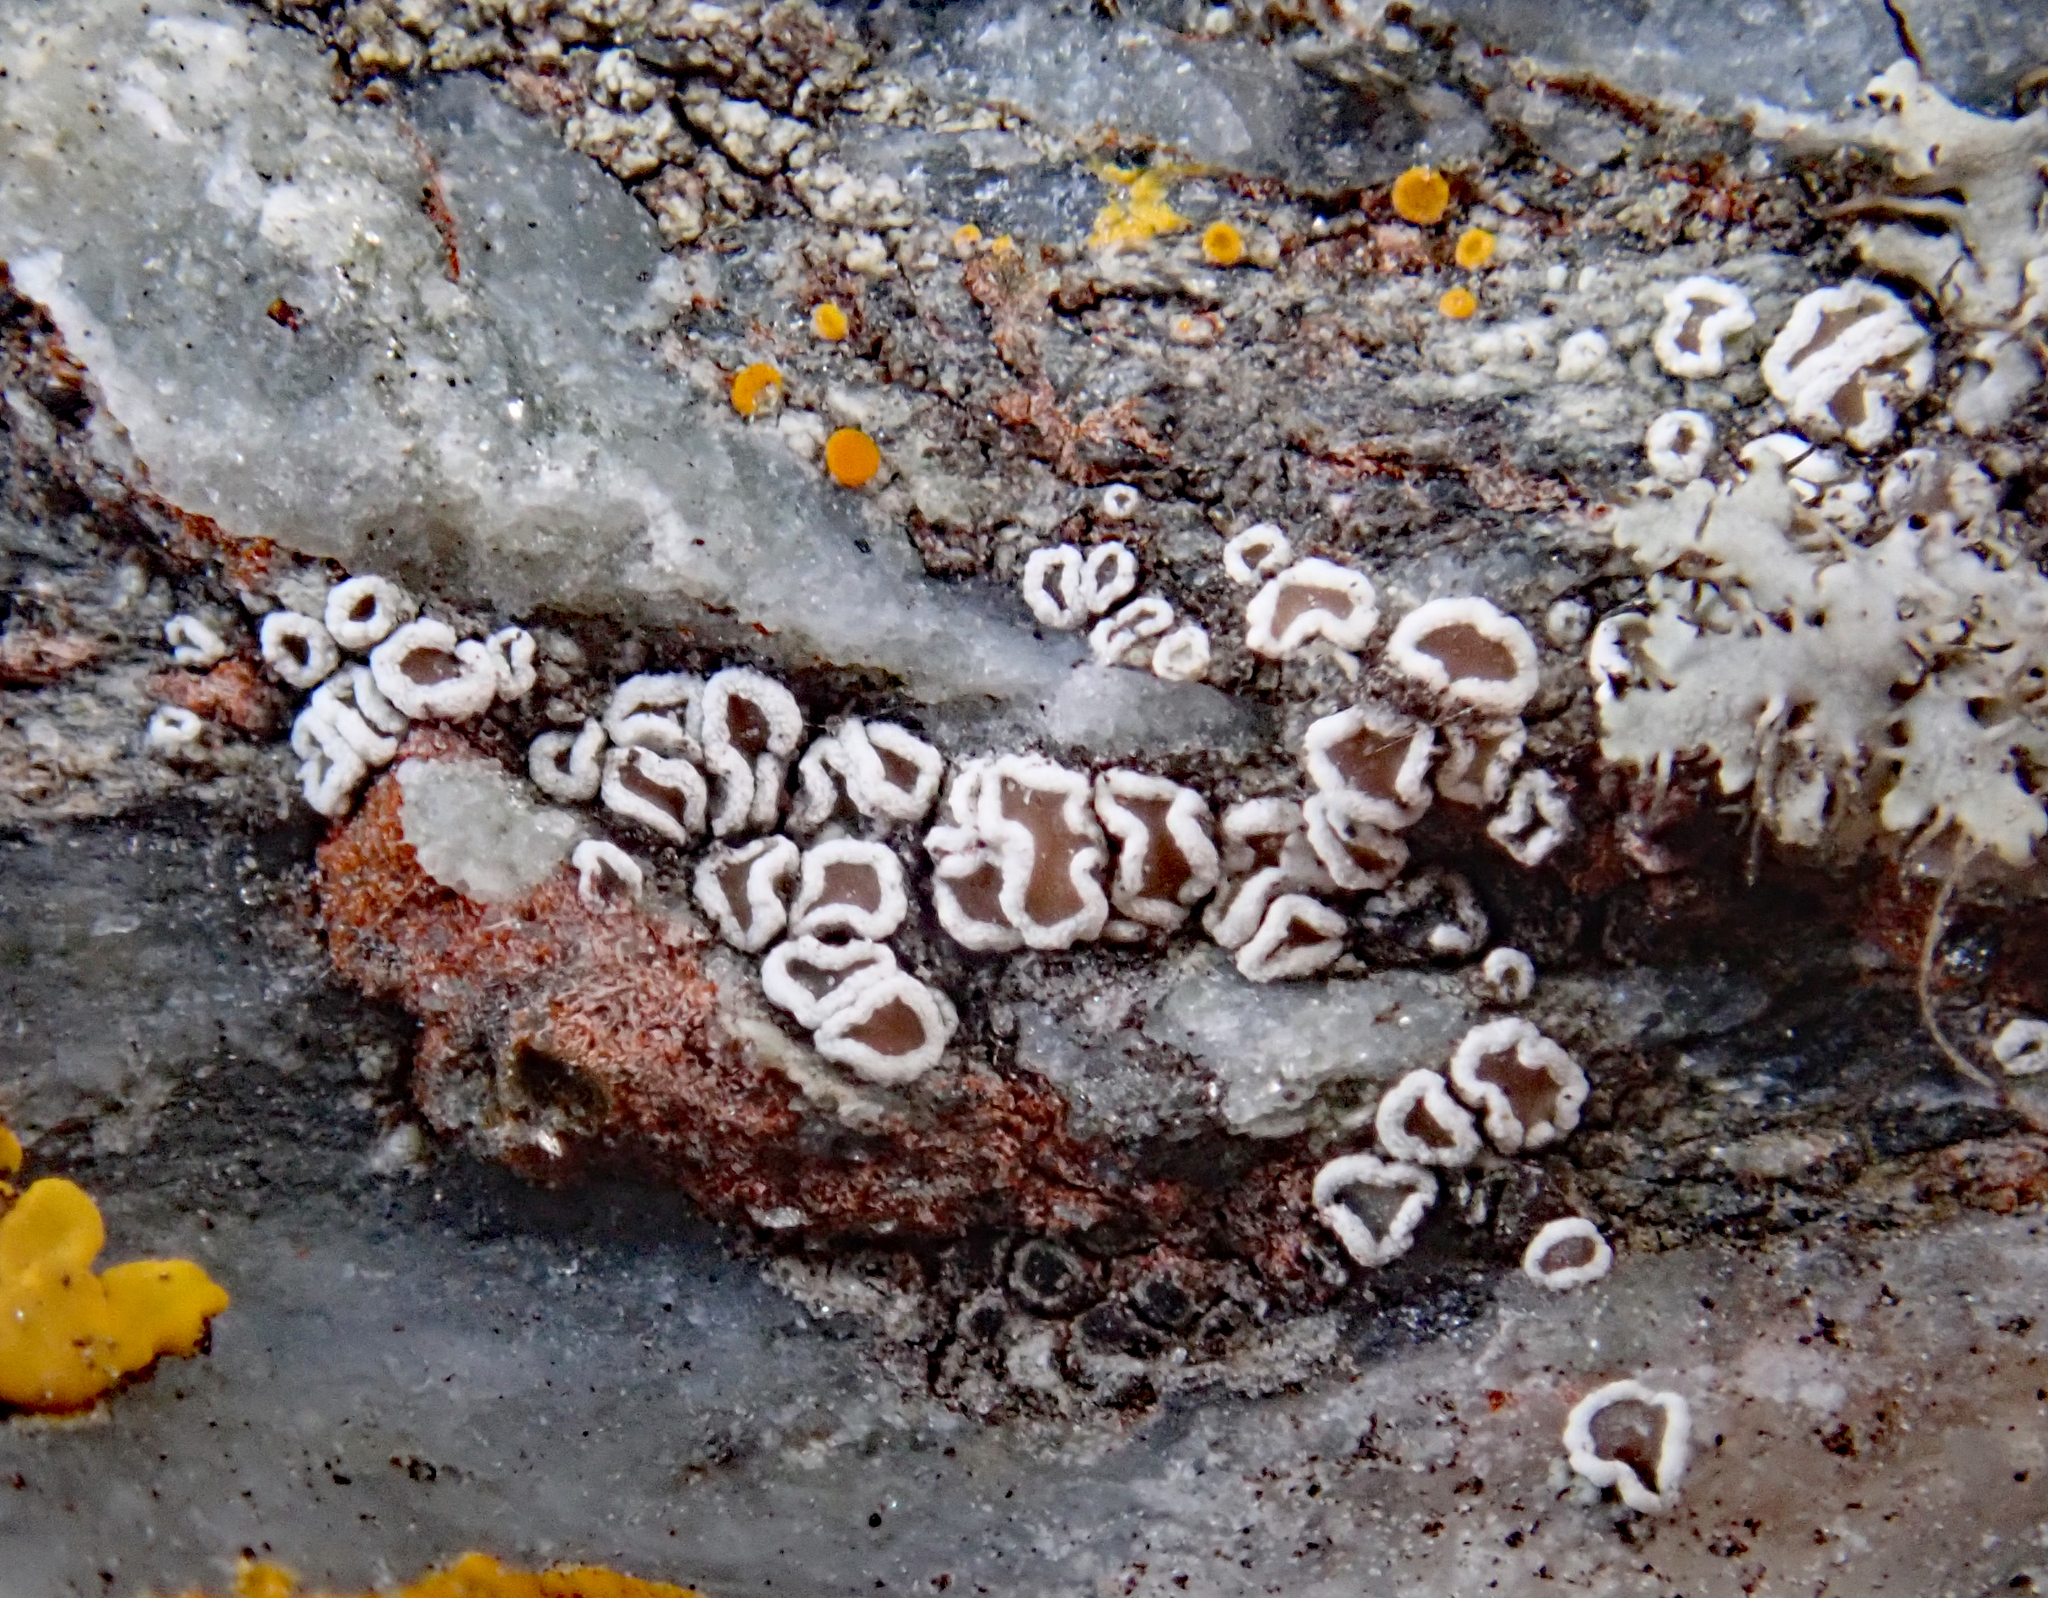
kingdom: Fungi
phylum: Ascomycota
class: Lecanoromycetes
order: Lecanorales
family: Lecanoraceae
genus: Polyozosia
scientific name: Polyozosia dispersa
